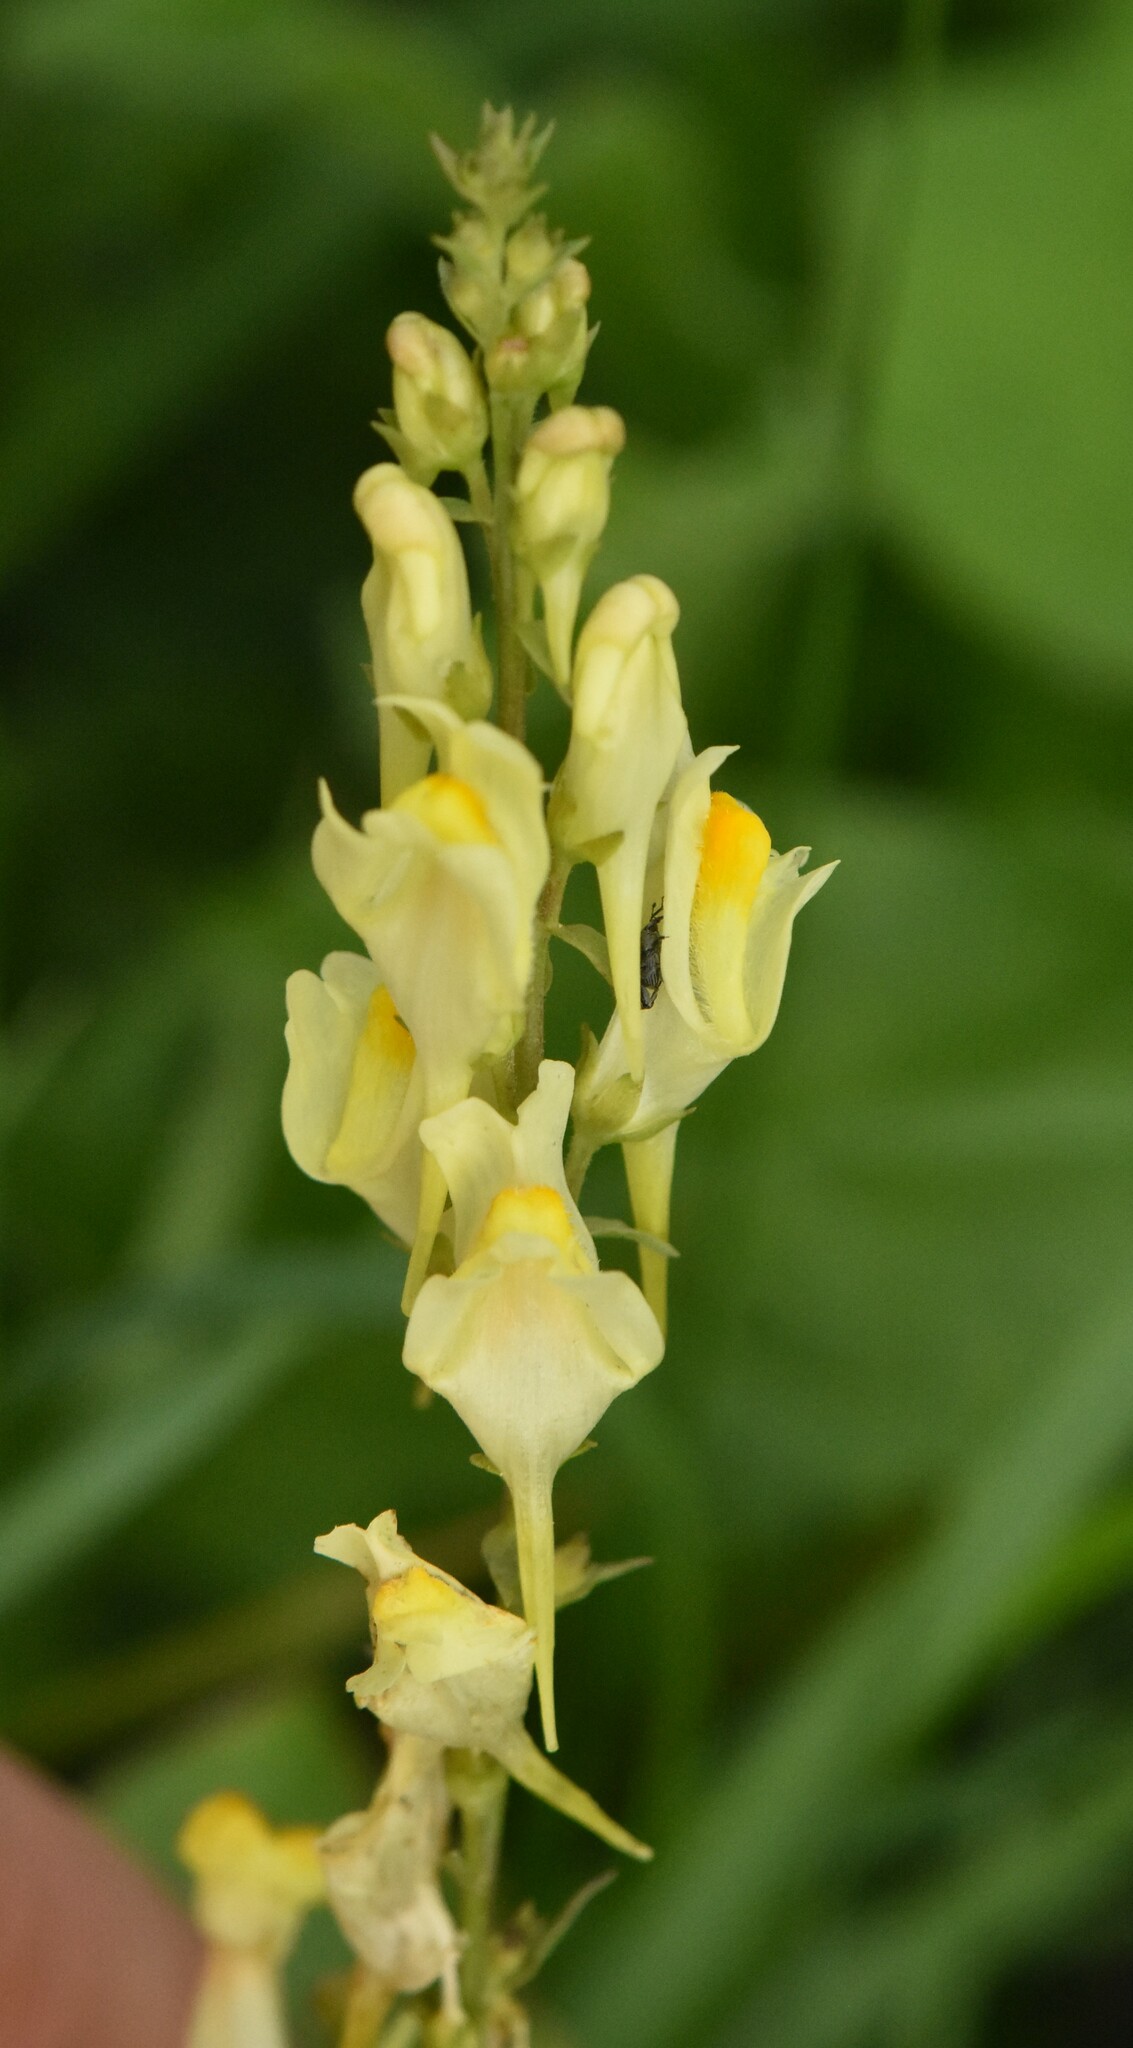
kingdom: Plantae
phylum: Tracheophyta
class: Magnoliopsida
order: Lamiales
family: Plantaginaceae
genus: Linaria
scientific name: Linaria vulgaris
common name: Butter and eggs
